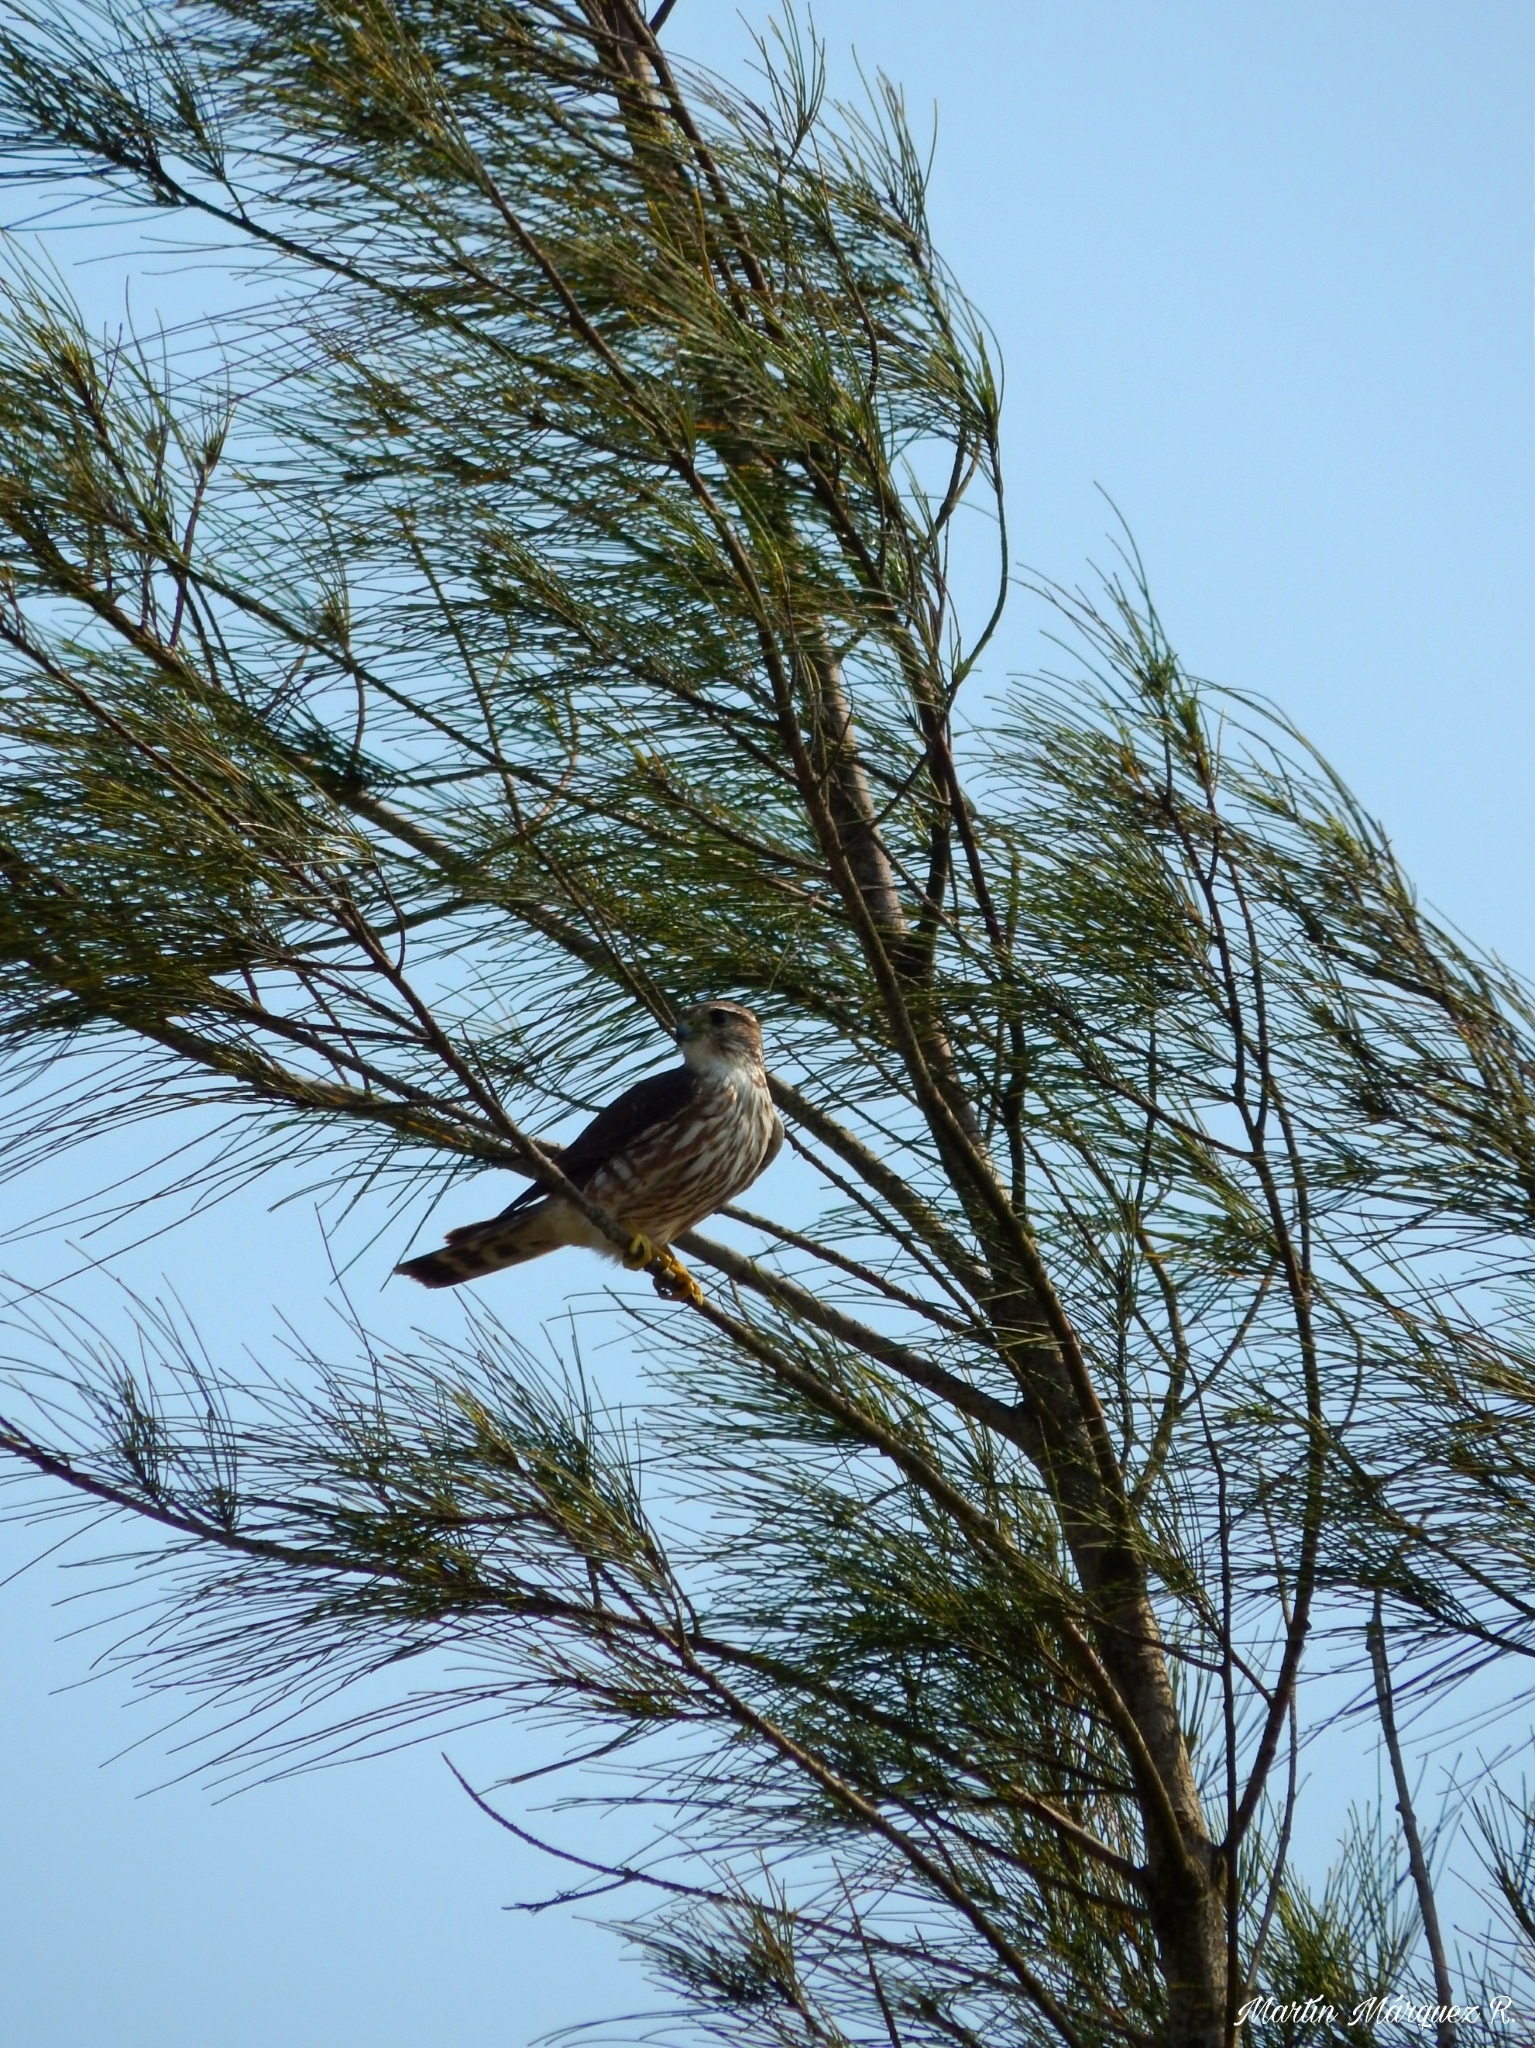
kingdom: Animalia
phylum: Chordata
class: Aves
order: Falconiformes
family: Falconidae
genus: Falco
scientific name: Falco columbarius
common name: Merlin
